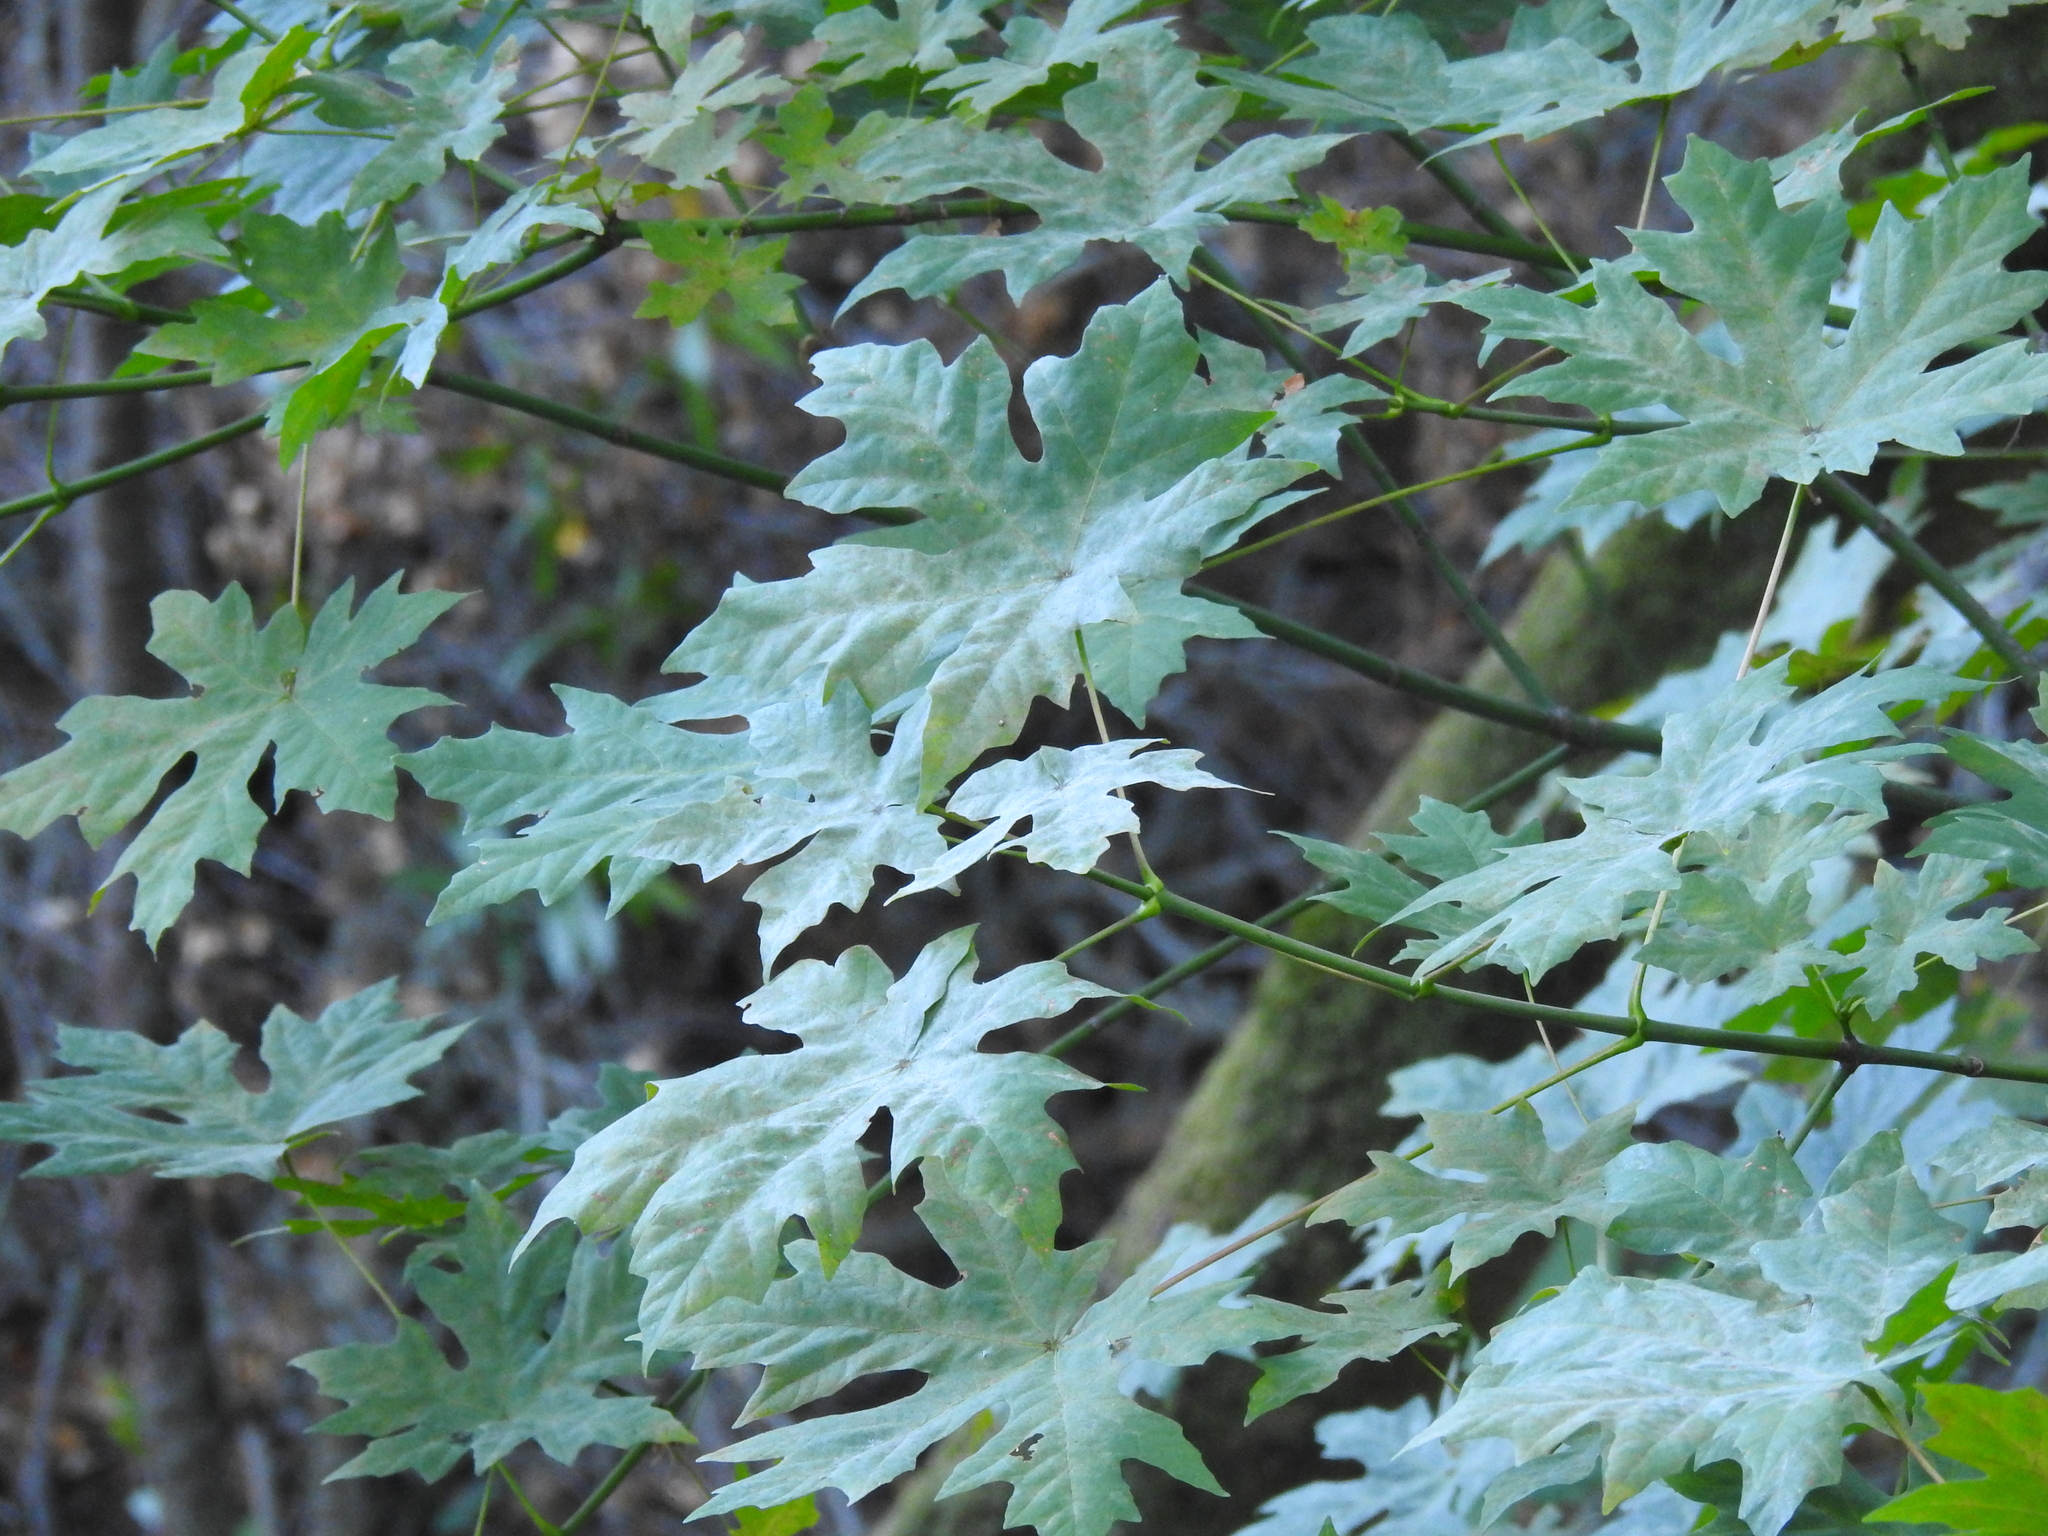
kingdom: Plantae
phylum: Tracheophyta
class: Magnoliopsida
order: Sapindales
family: Sapindaceae
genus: Acer
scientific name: Acer macrophyllum
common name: Oregon maple
